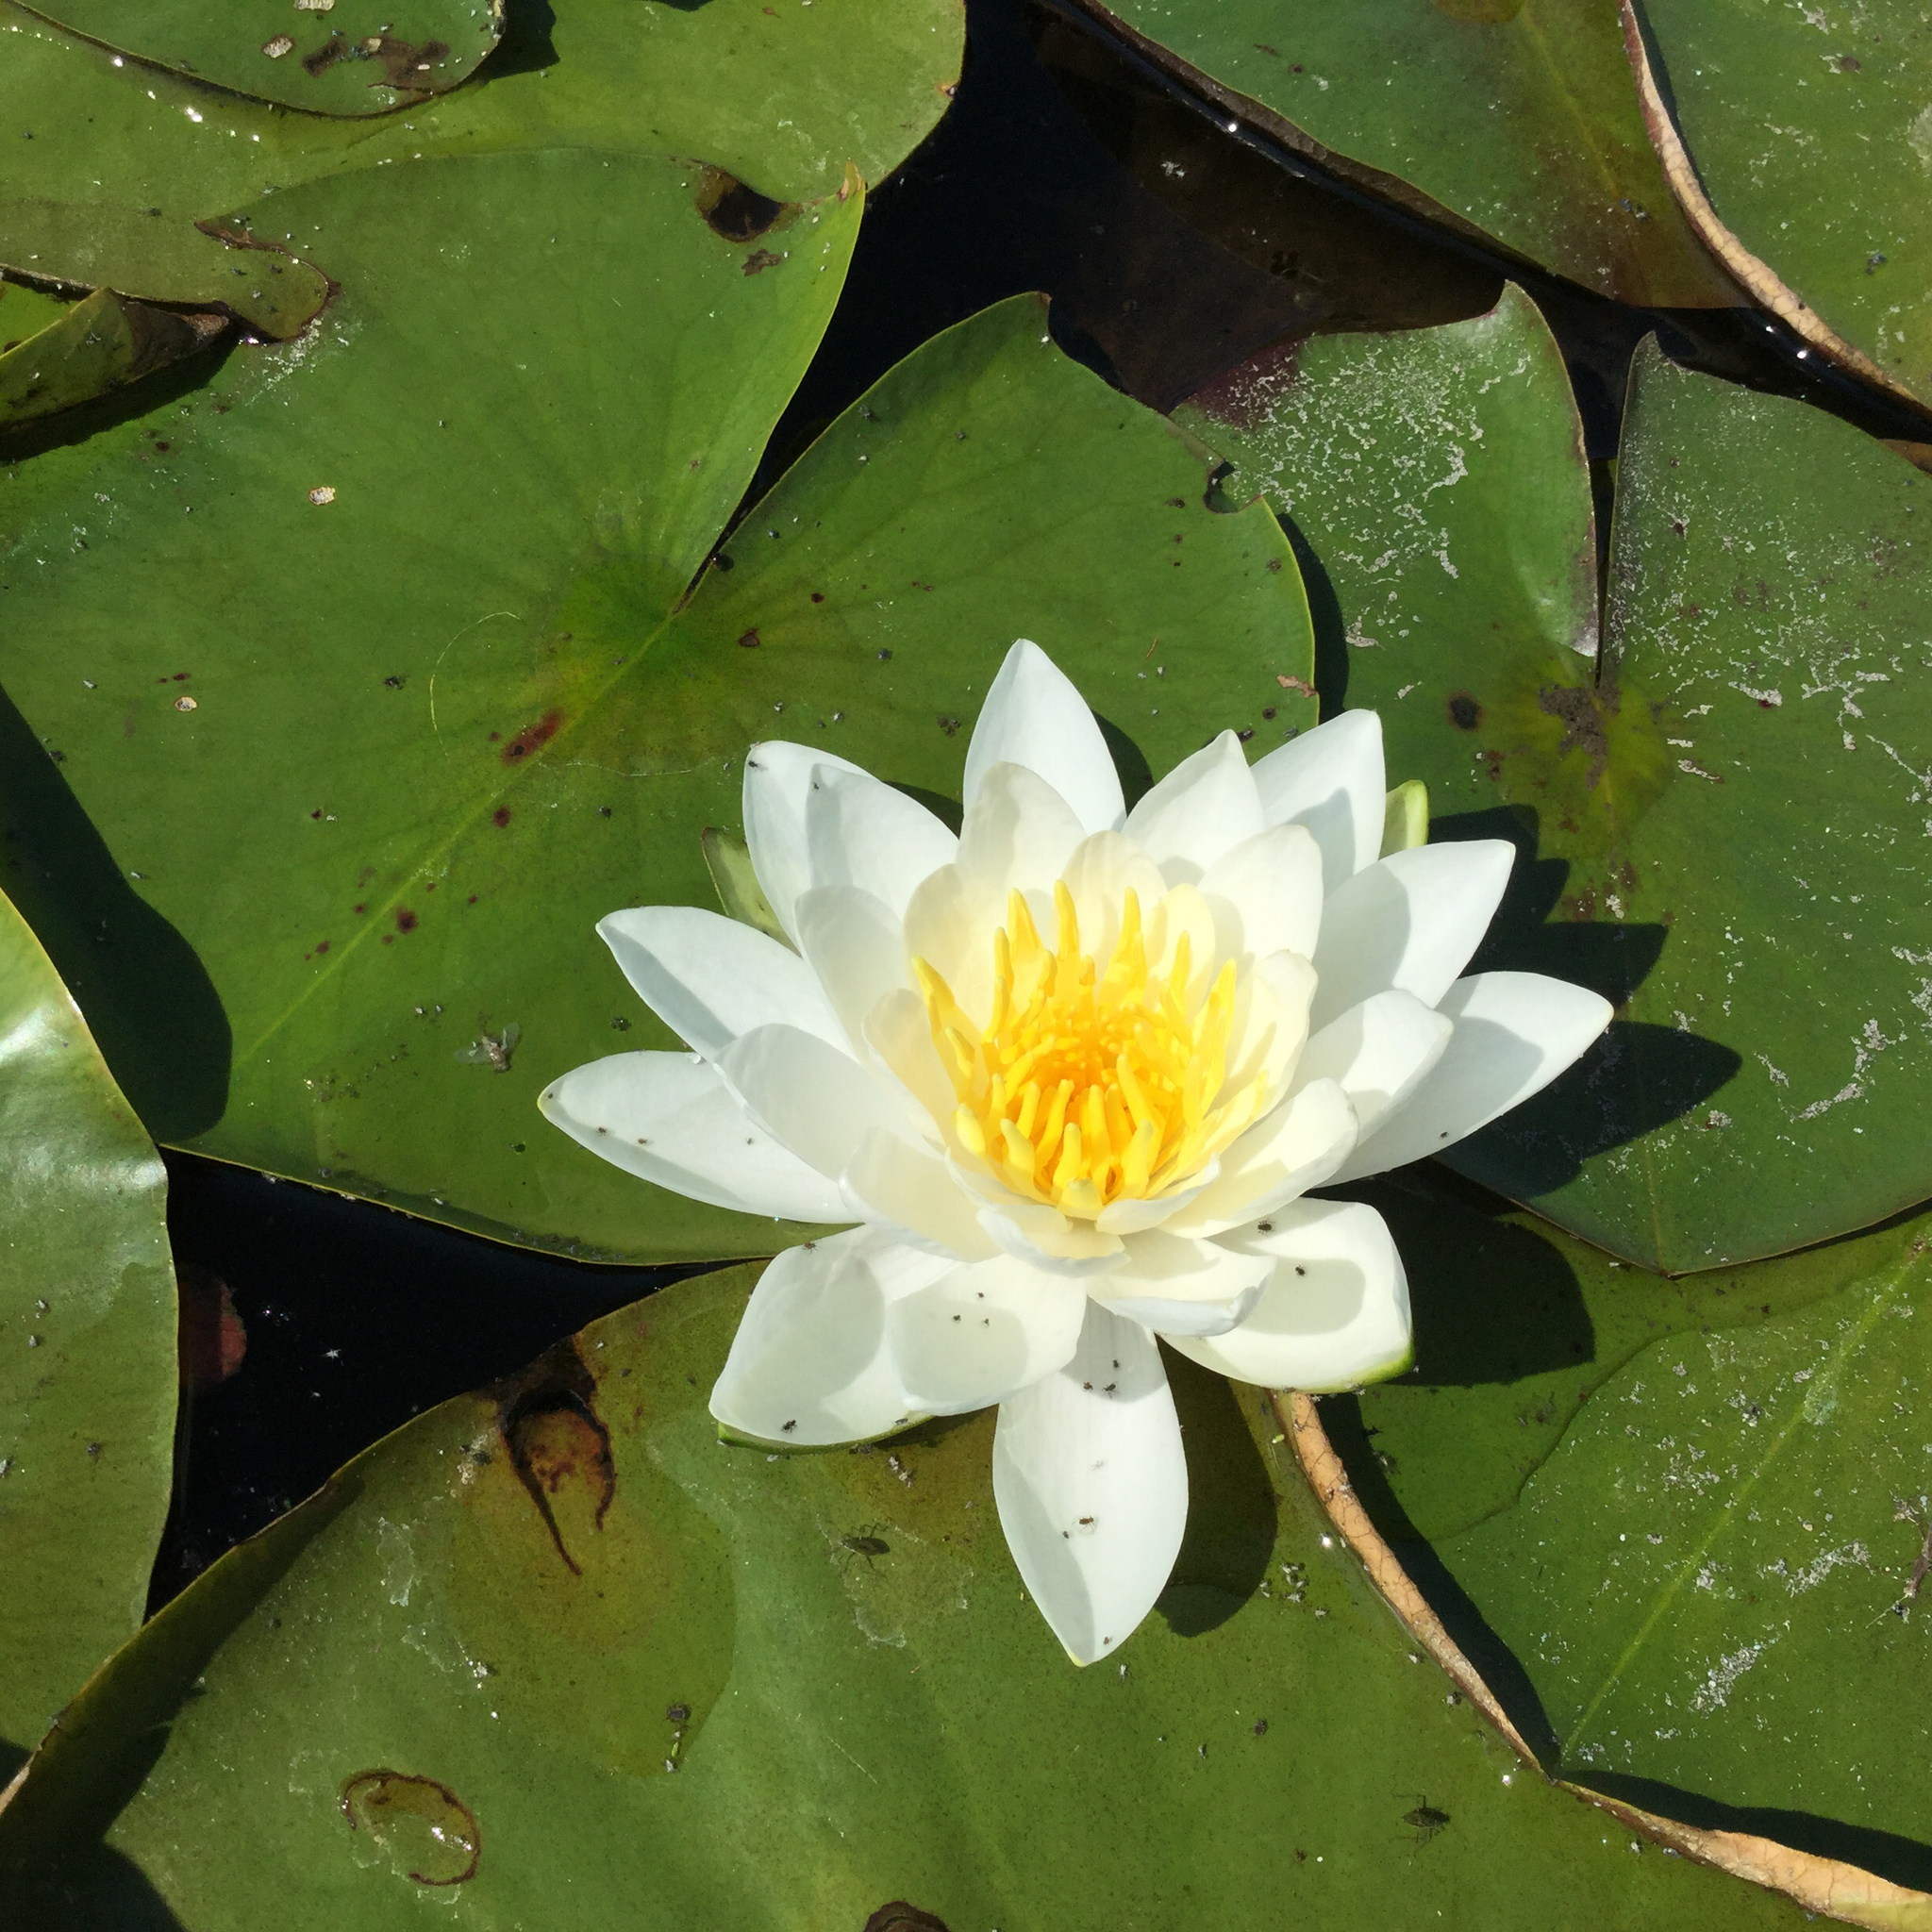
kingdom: Plantae
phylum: Tracheophyta
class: Magnoliopsida
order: Nymphaeales
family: Nymphaeaceae
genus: Nymphaea
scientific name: Nymphaea odorata
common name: Fragrant water-lily
